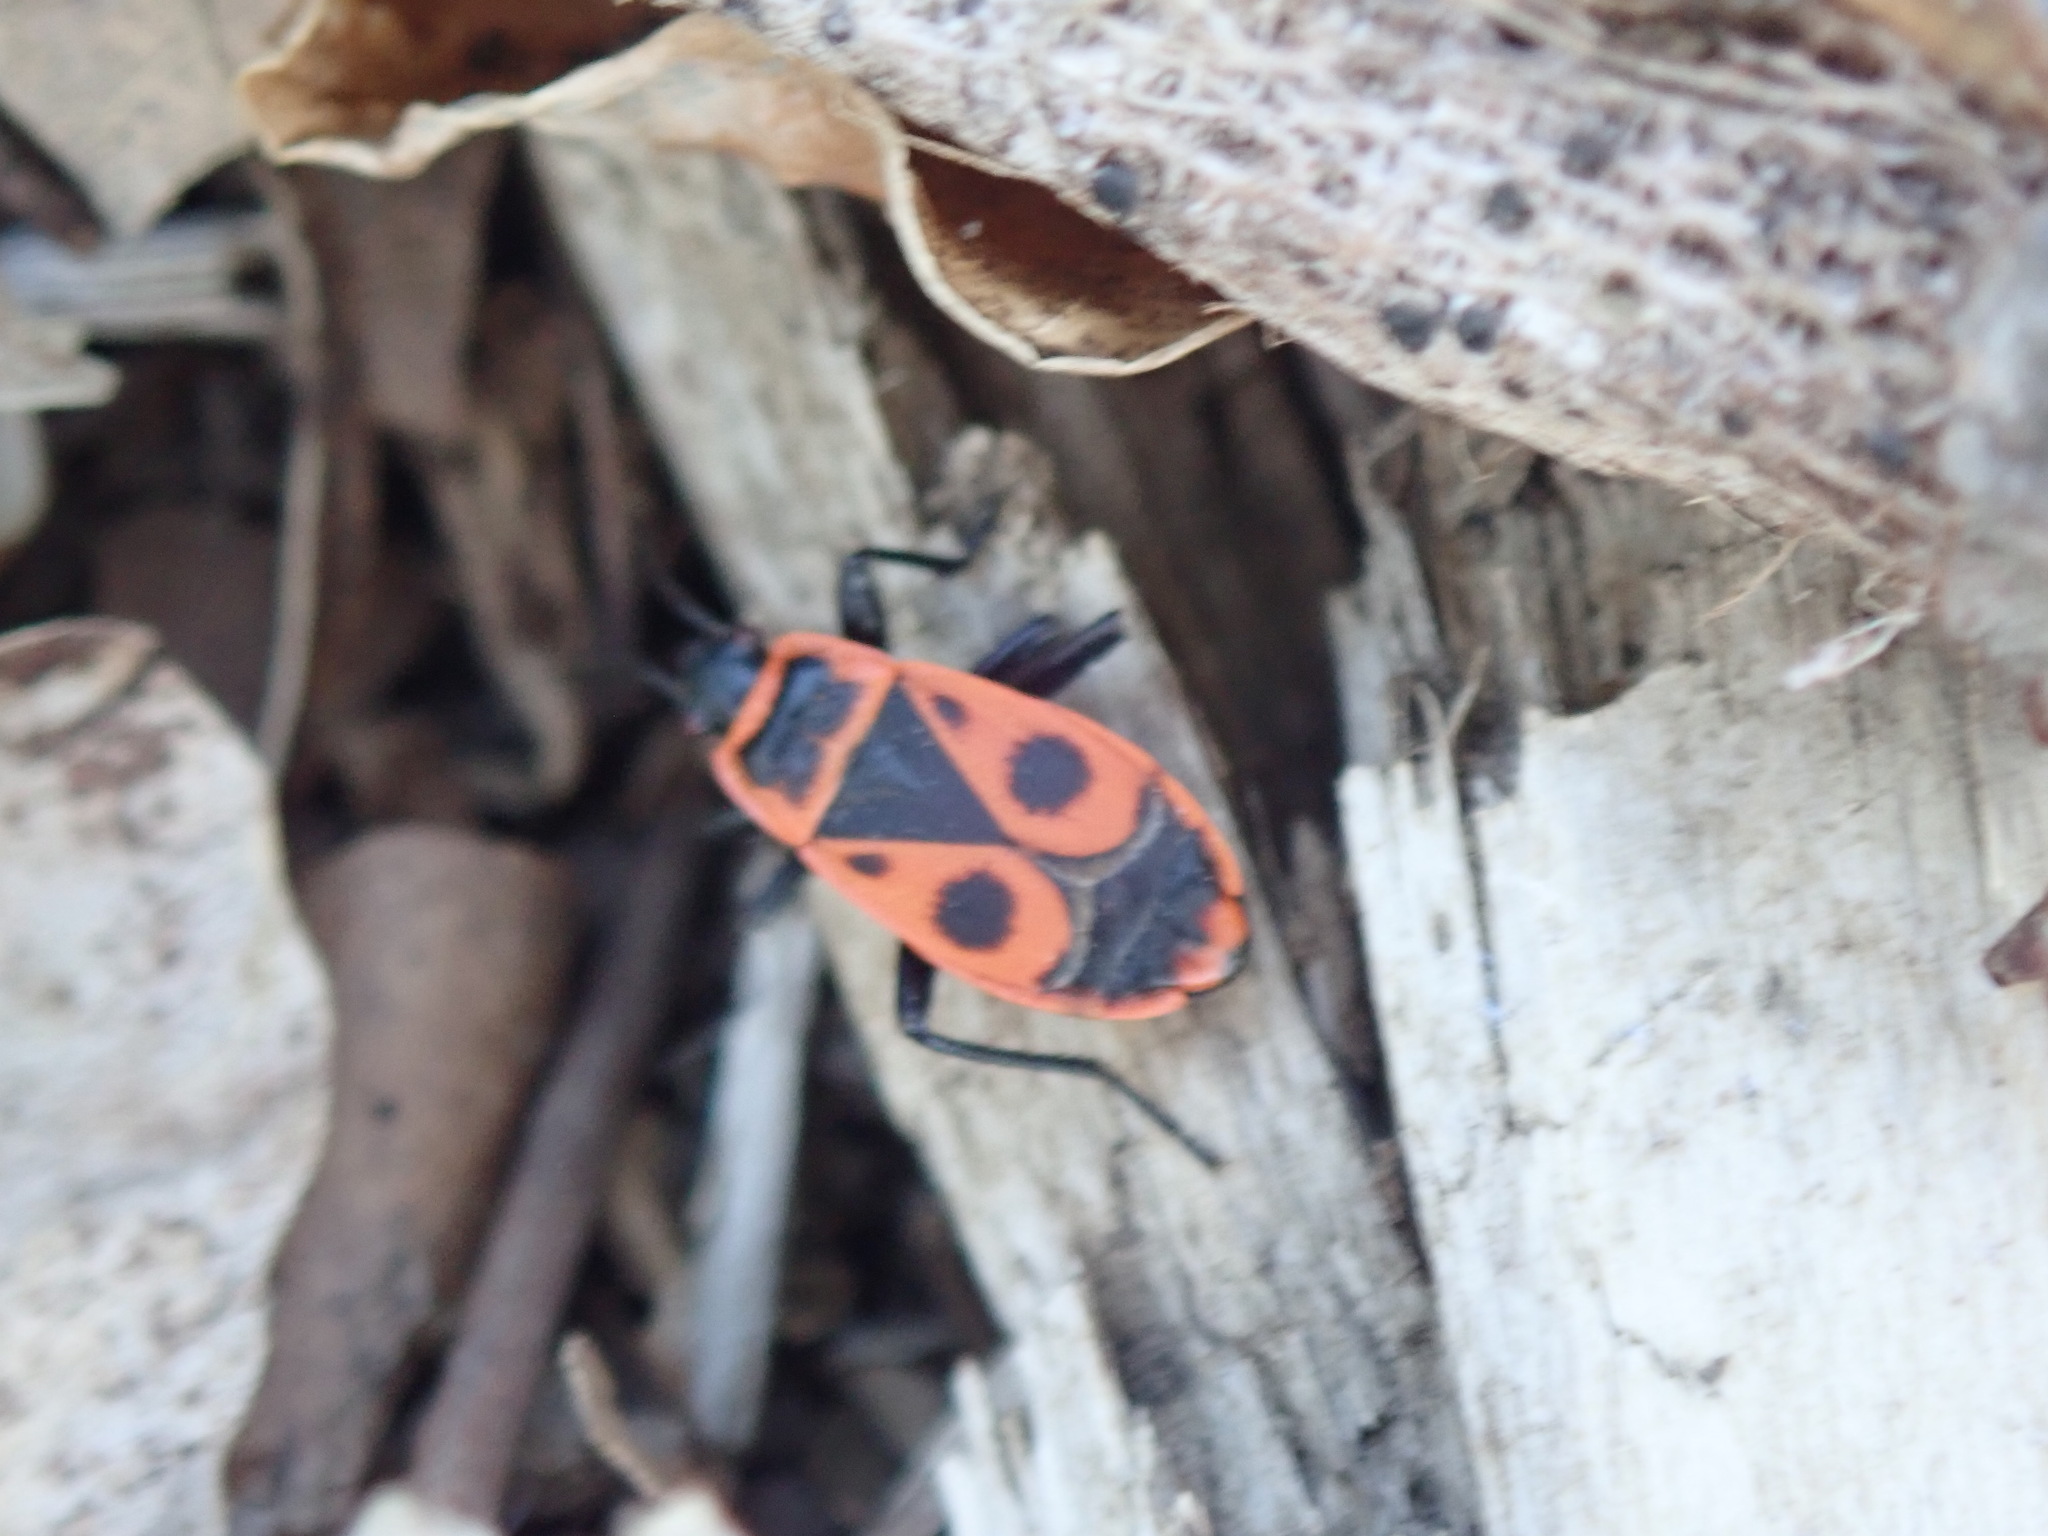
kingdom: Animalia
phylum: Arthropoda
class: Insecta
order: Hemiptera
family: Pyrrhocoridae
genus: Pyrrhocoris
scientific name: Pyrrhocoris apterus
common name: Firebug
